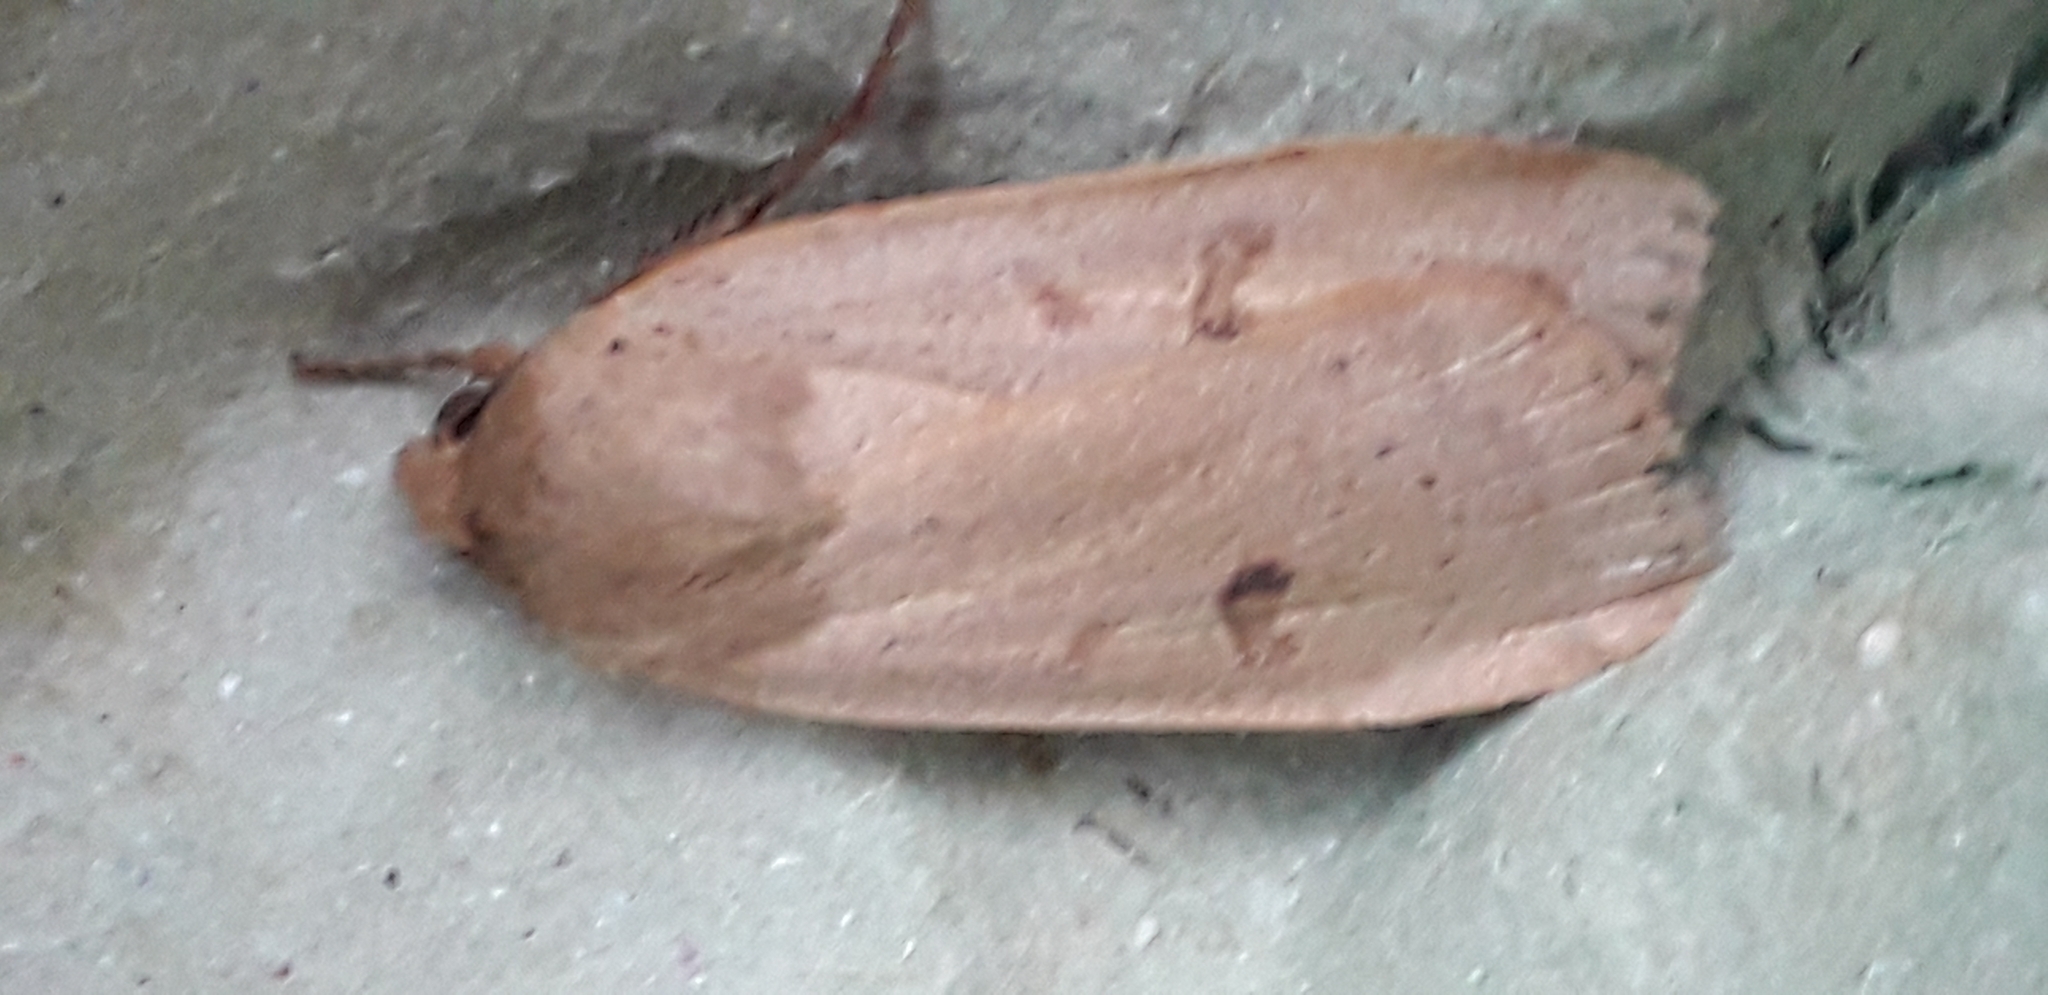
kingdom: Animalia
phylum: Arthropoda
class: Insecta
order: Lepidoptera
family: Noctuidae
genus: Noctua
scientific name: Noctua comes
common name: Lesser yellow underwing
